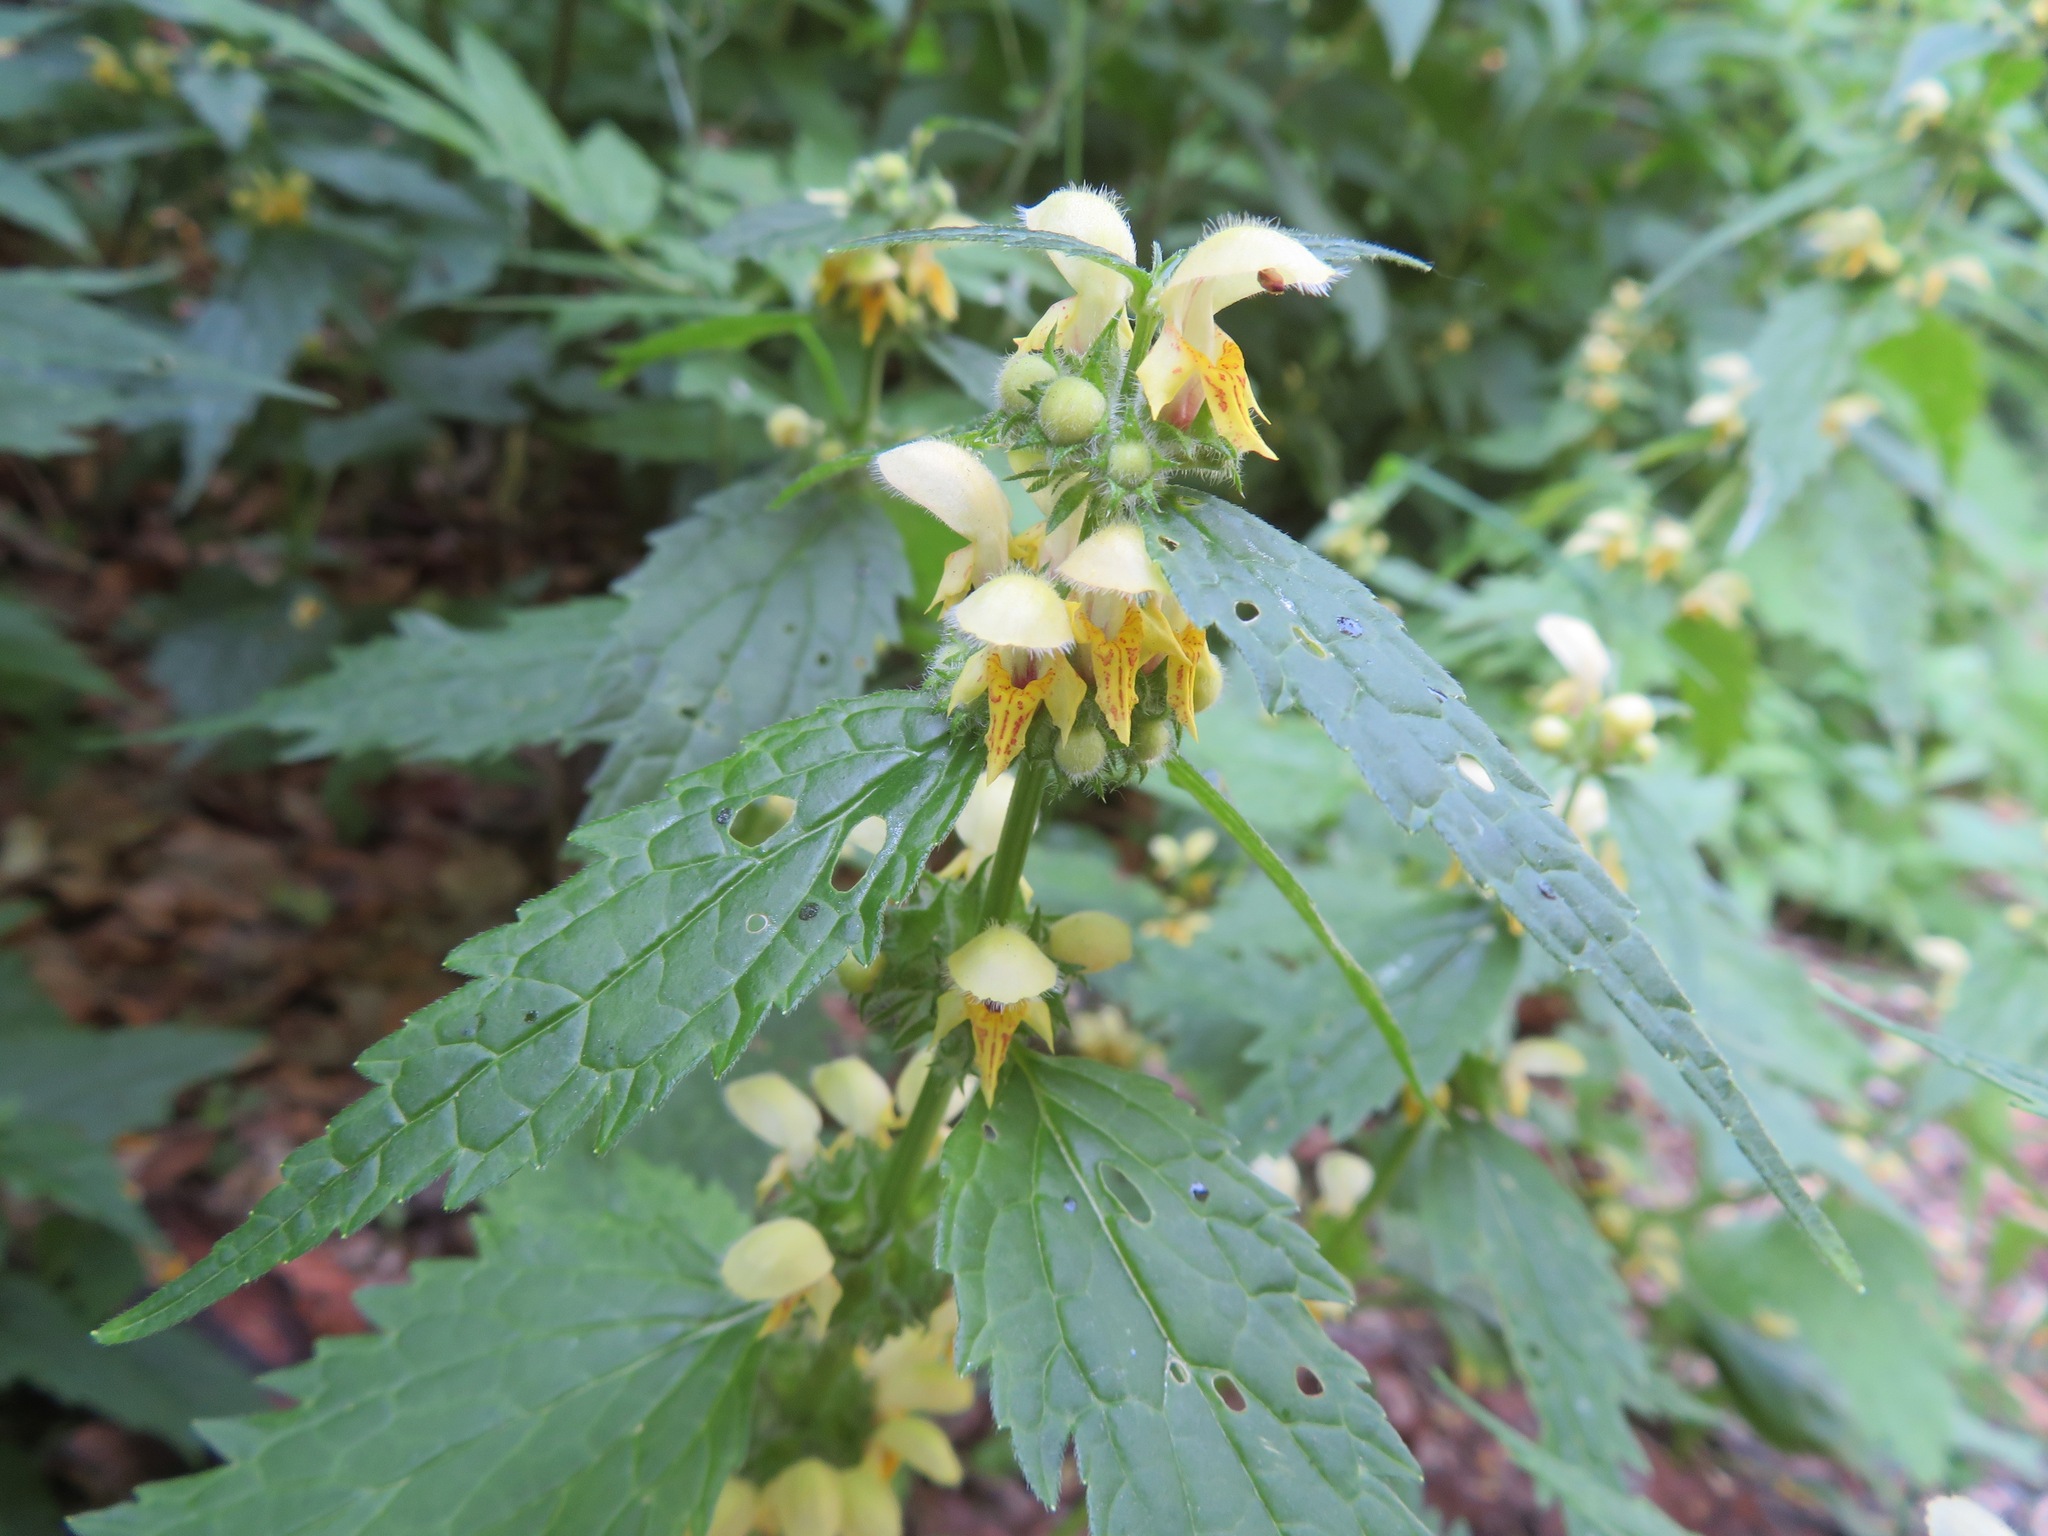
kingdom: Plantae
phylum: Tracheophyta
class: Magnoliopsida
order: Lamiales
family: Lamiaceae
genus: Lamium
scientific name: Lamium galeobdolon
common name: Yellow archangel
